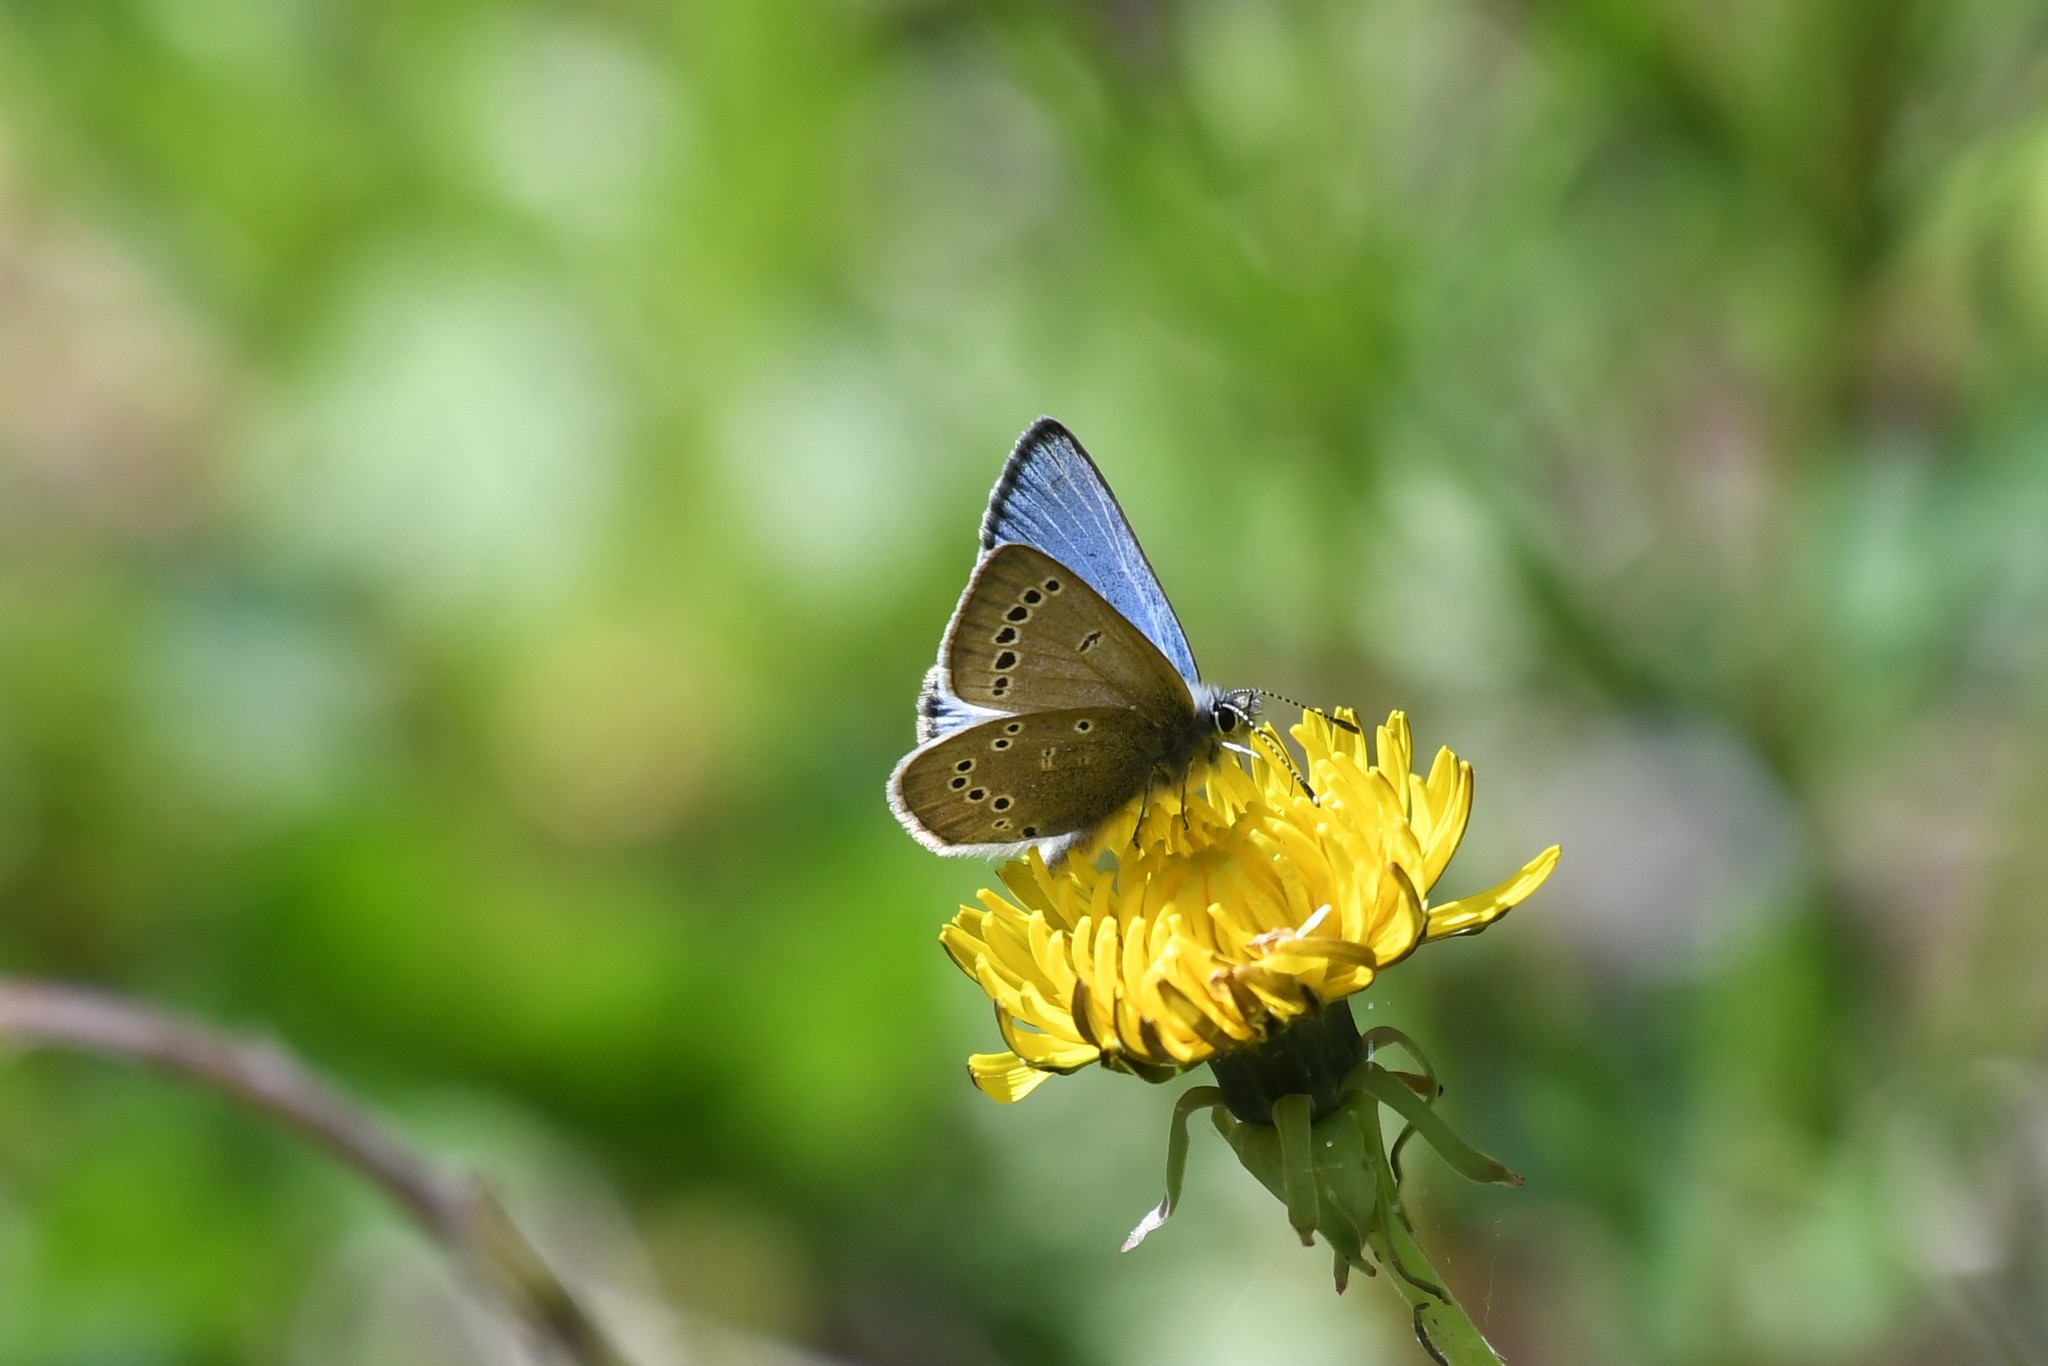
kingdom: Animalia
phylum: Arthropoda
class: Insecta
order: Lepidoptera
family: Lycaenidae
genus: Glaucopsyche
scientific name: Glaucopsyche lygdamus
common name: Silvery blue
